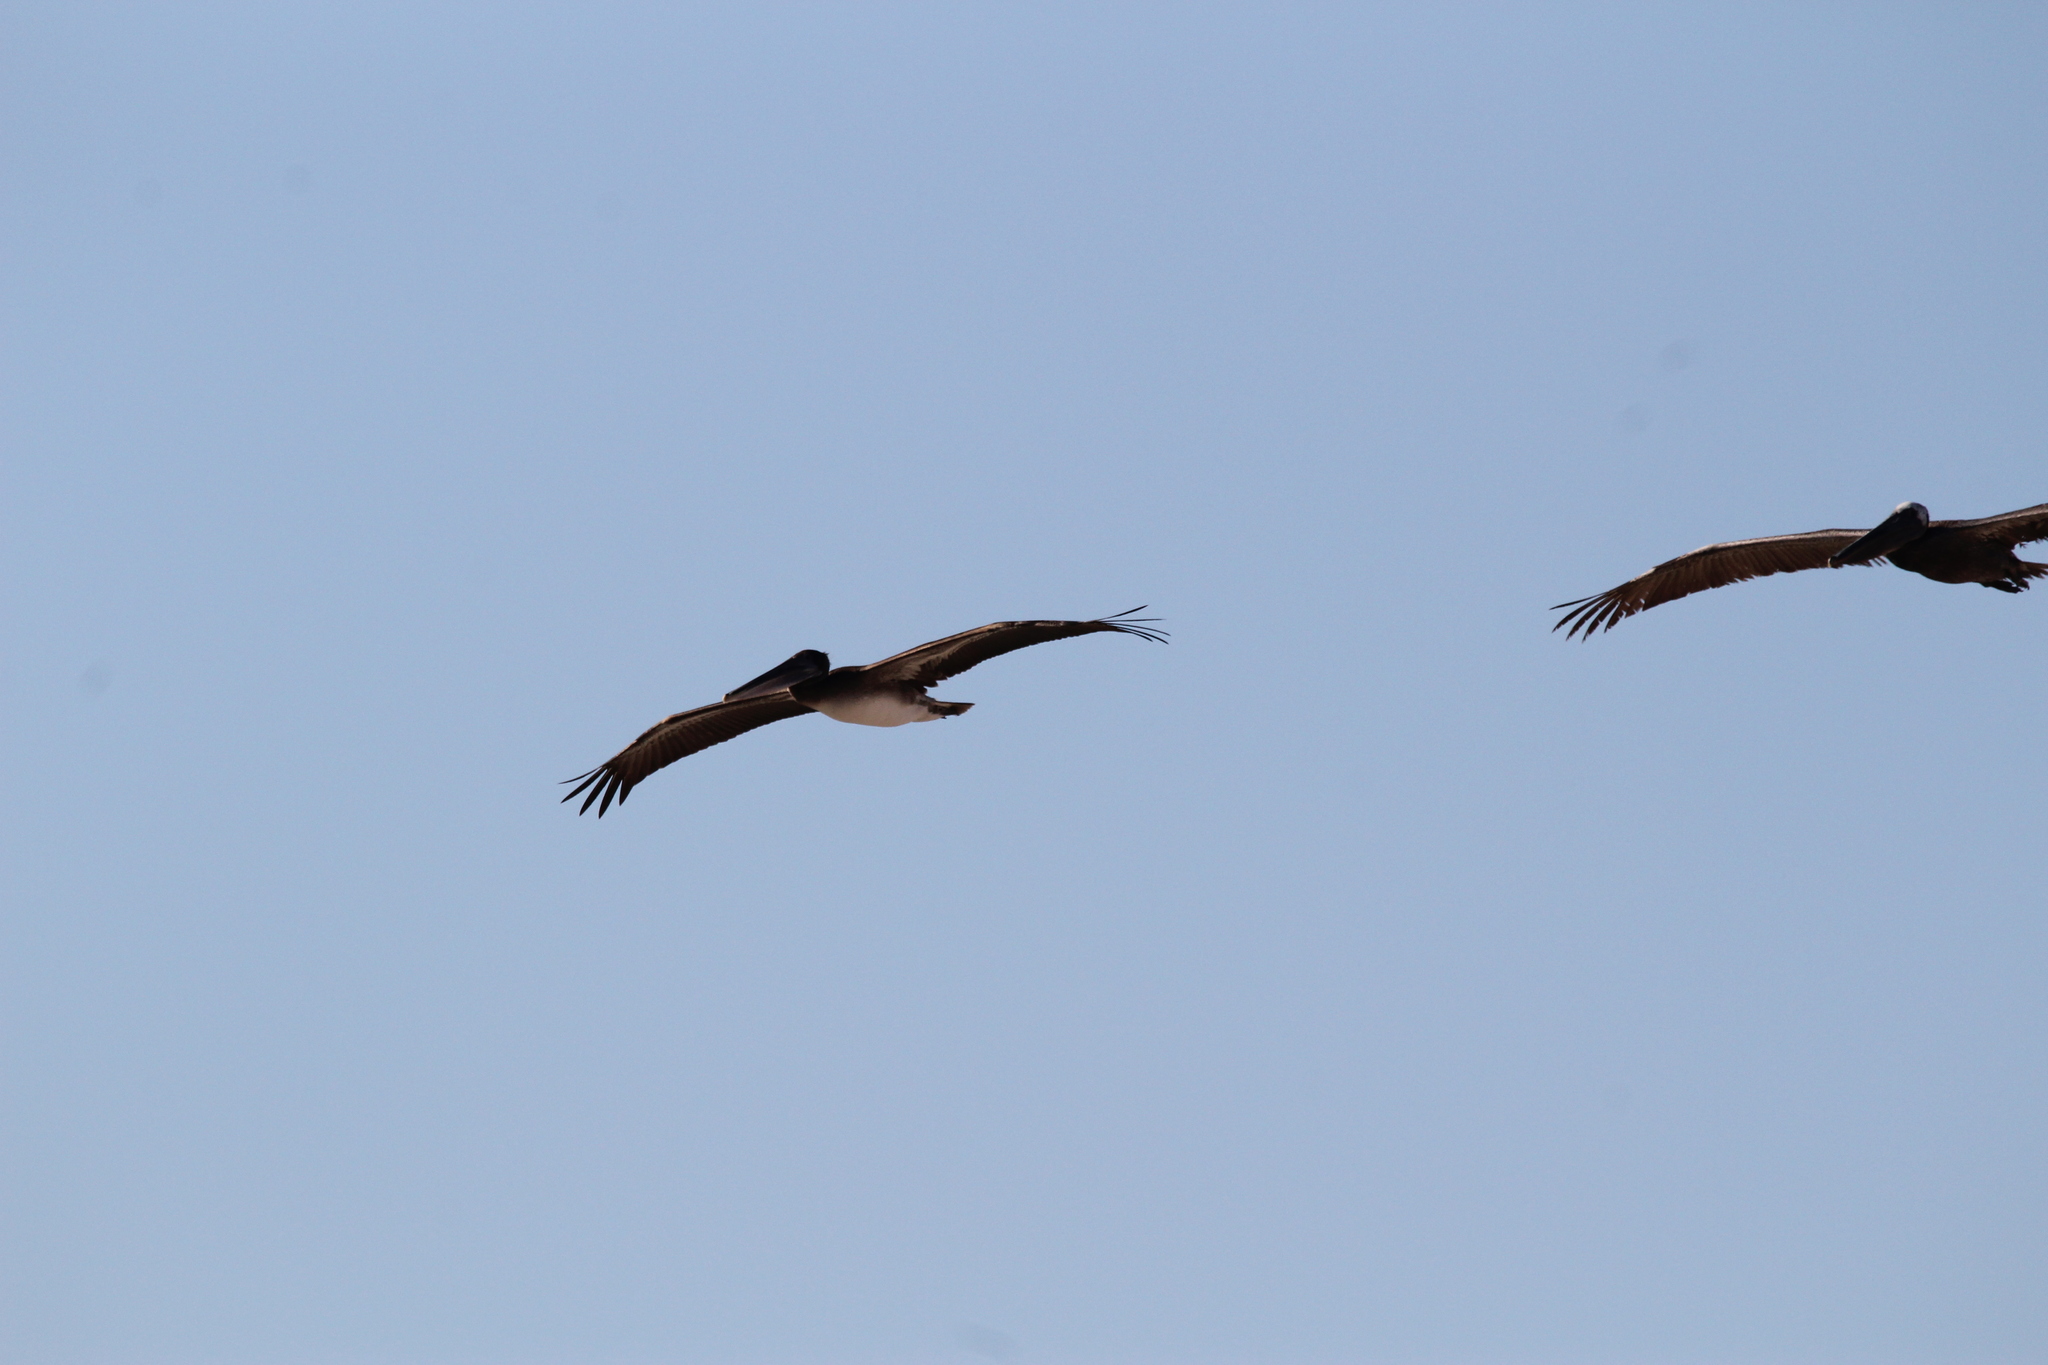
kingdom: Animalia
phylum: Chordata
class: Aves
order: Pelecaniformes
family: Pelecanidae
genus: Pelecanus
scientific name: Pelecanus occidentalis
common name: Brown pelican
